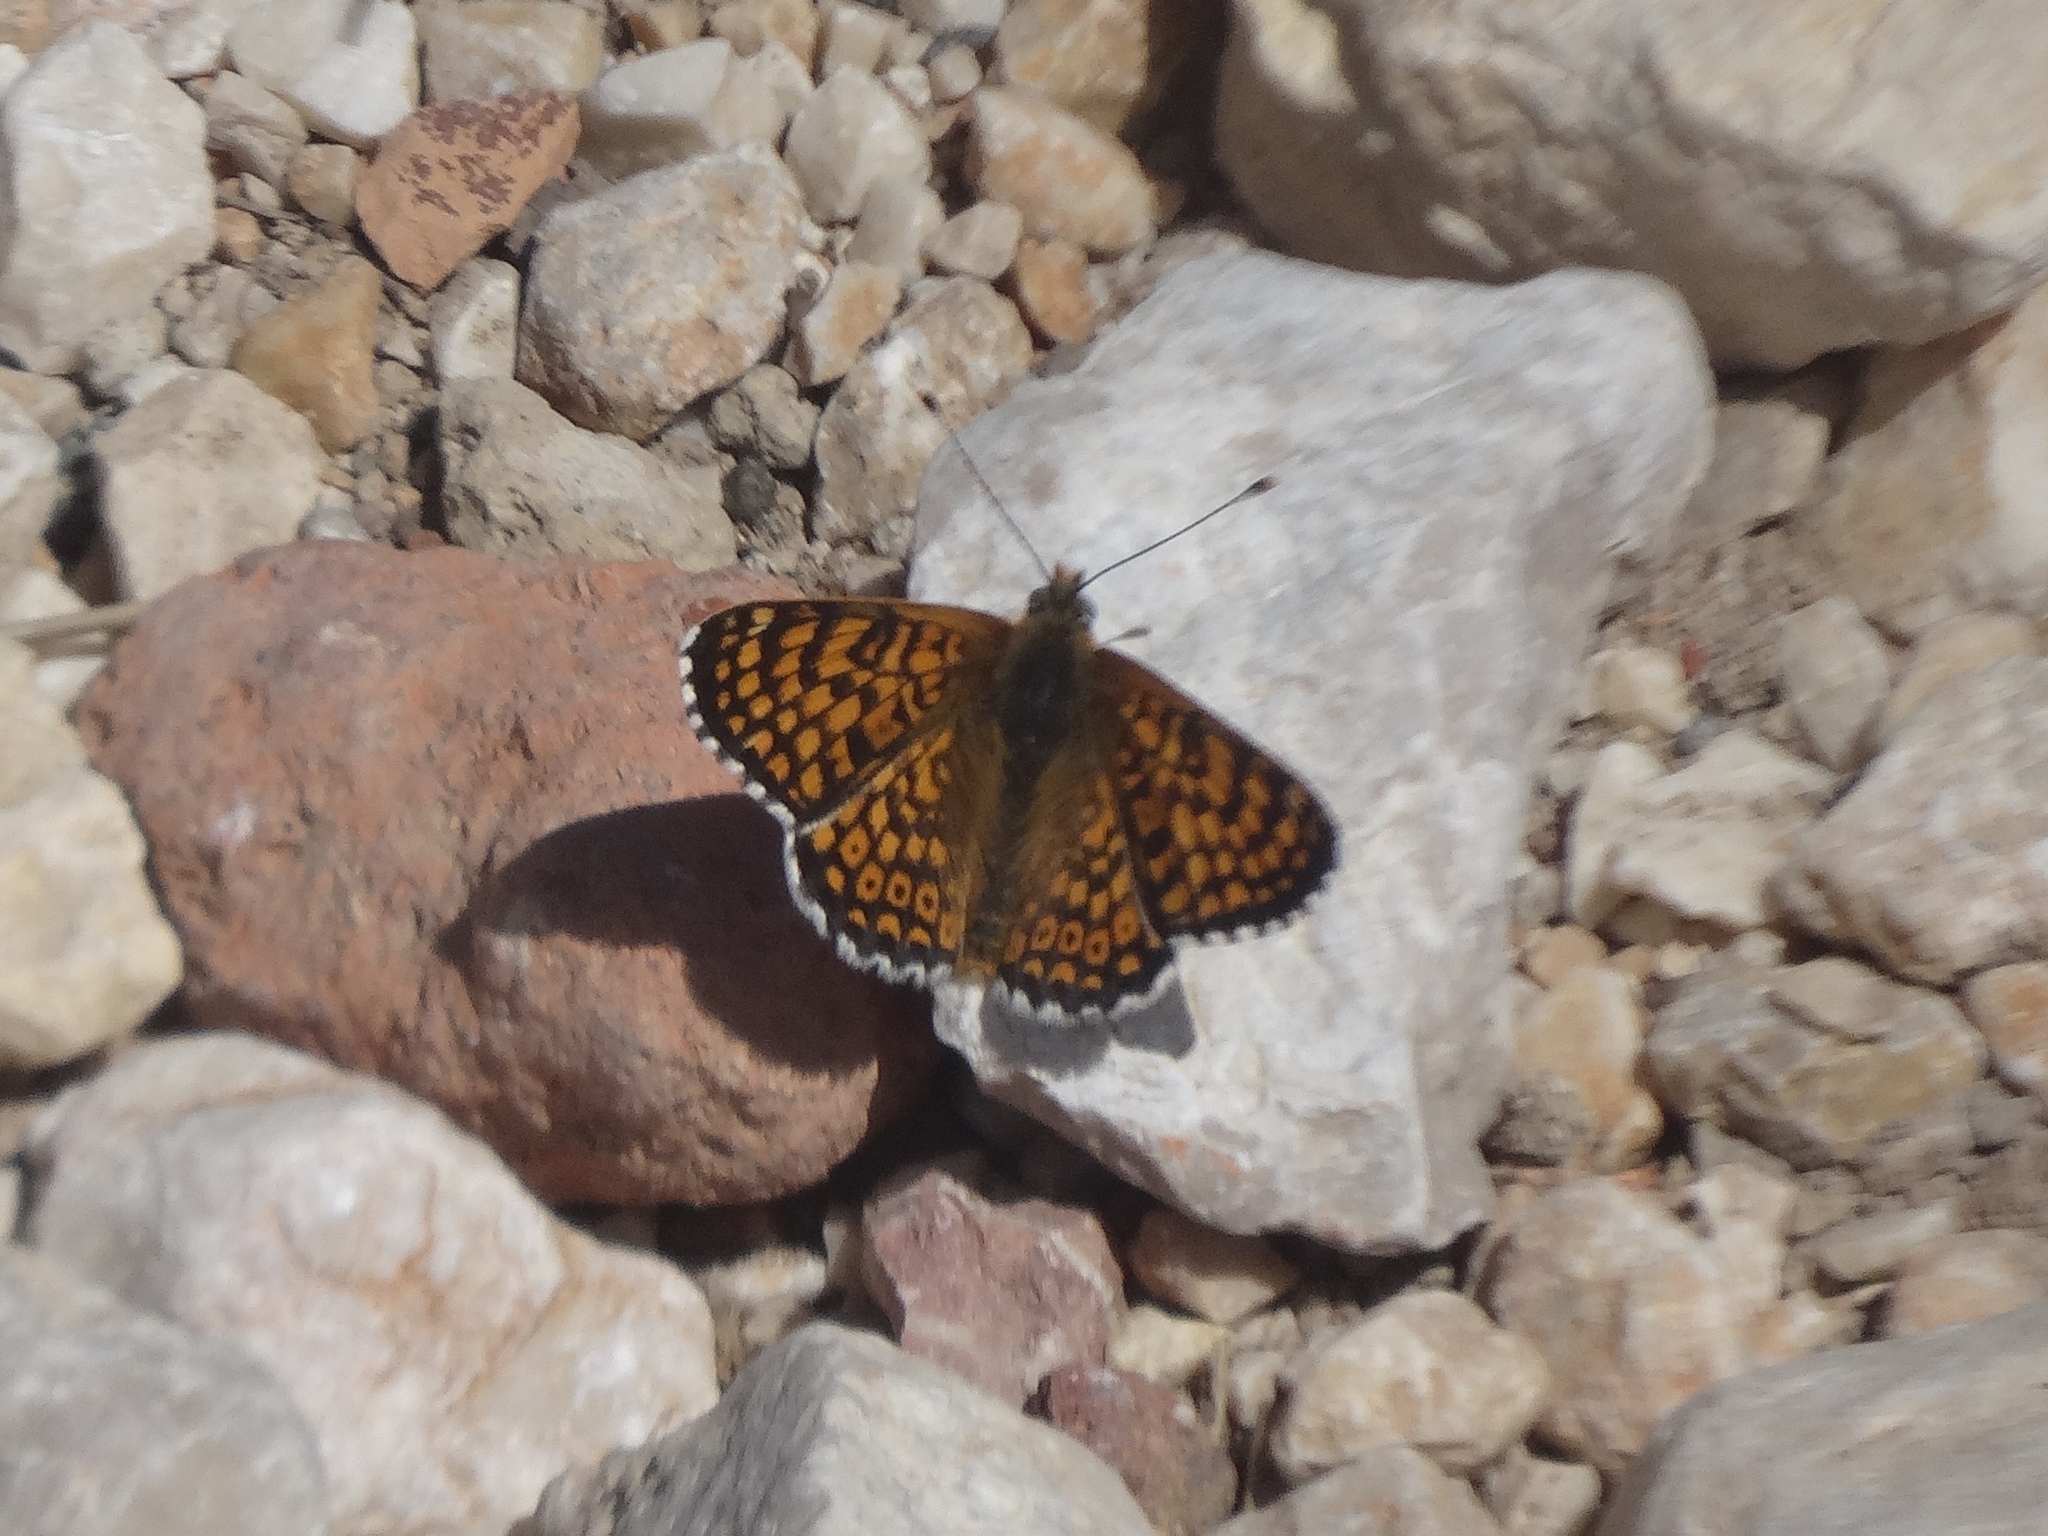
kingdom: Animalia
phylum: Arthropoda
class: Insecta
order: Lepidoptera
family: Nymphalidae
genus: Melitaea
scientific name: Melitaea cinxia
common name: Glanville fritillary
